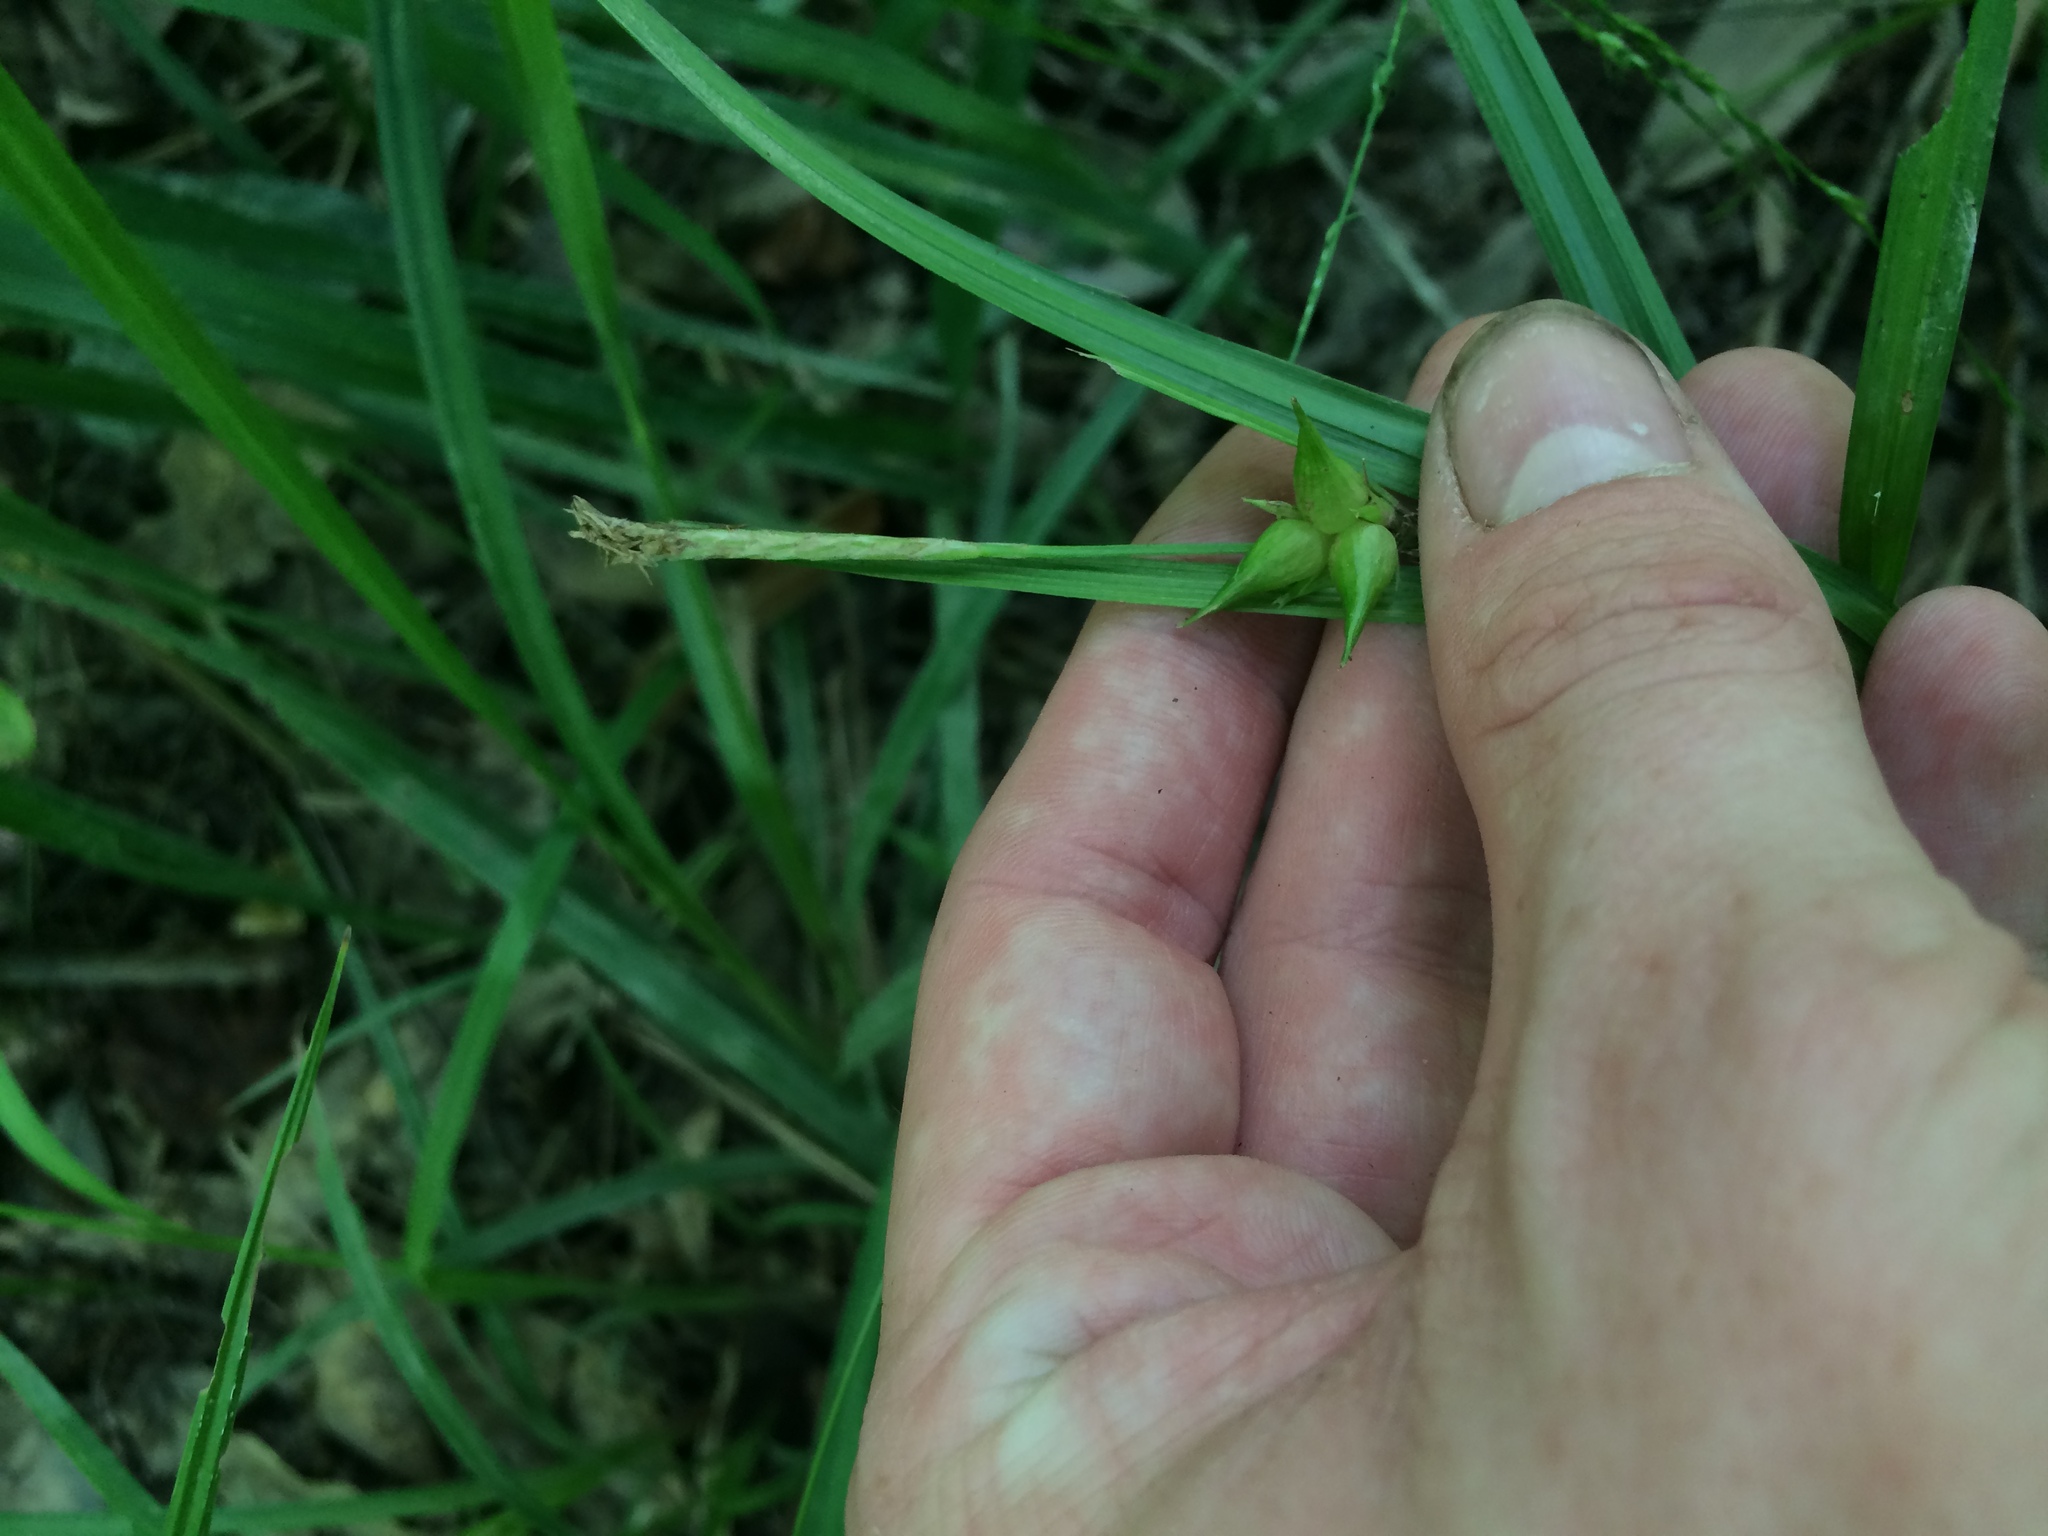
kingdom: Plantae
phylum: Tracheophyta
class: Liliopsida
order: Poales
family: Cyperaceae
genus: Carex
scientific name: Carex intumescens
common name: Greater bladder sedge
